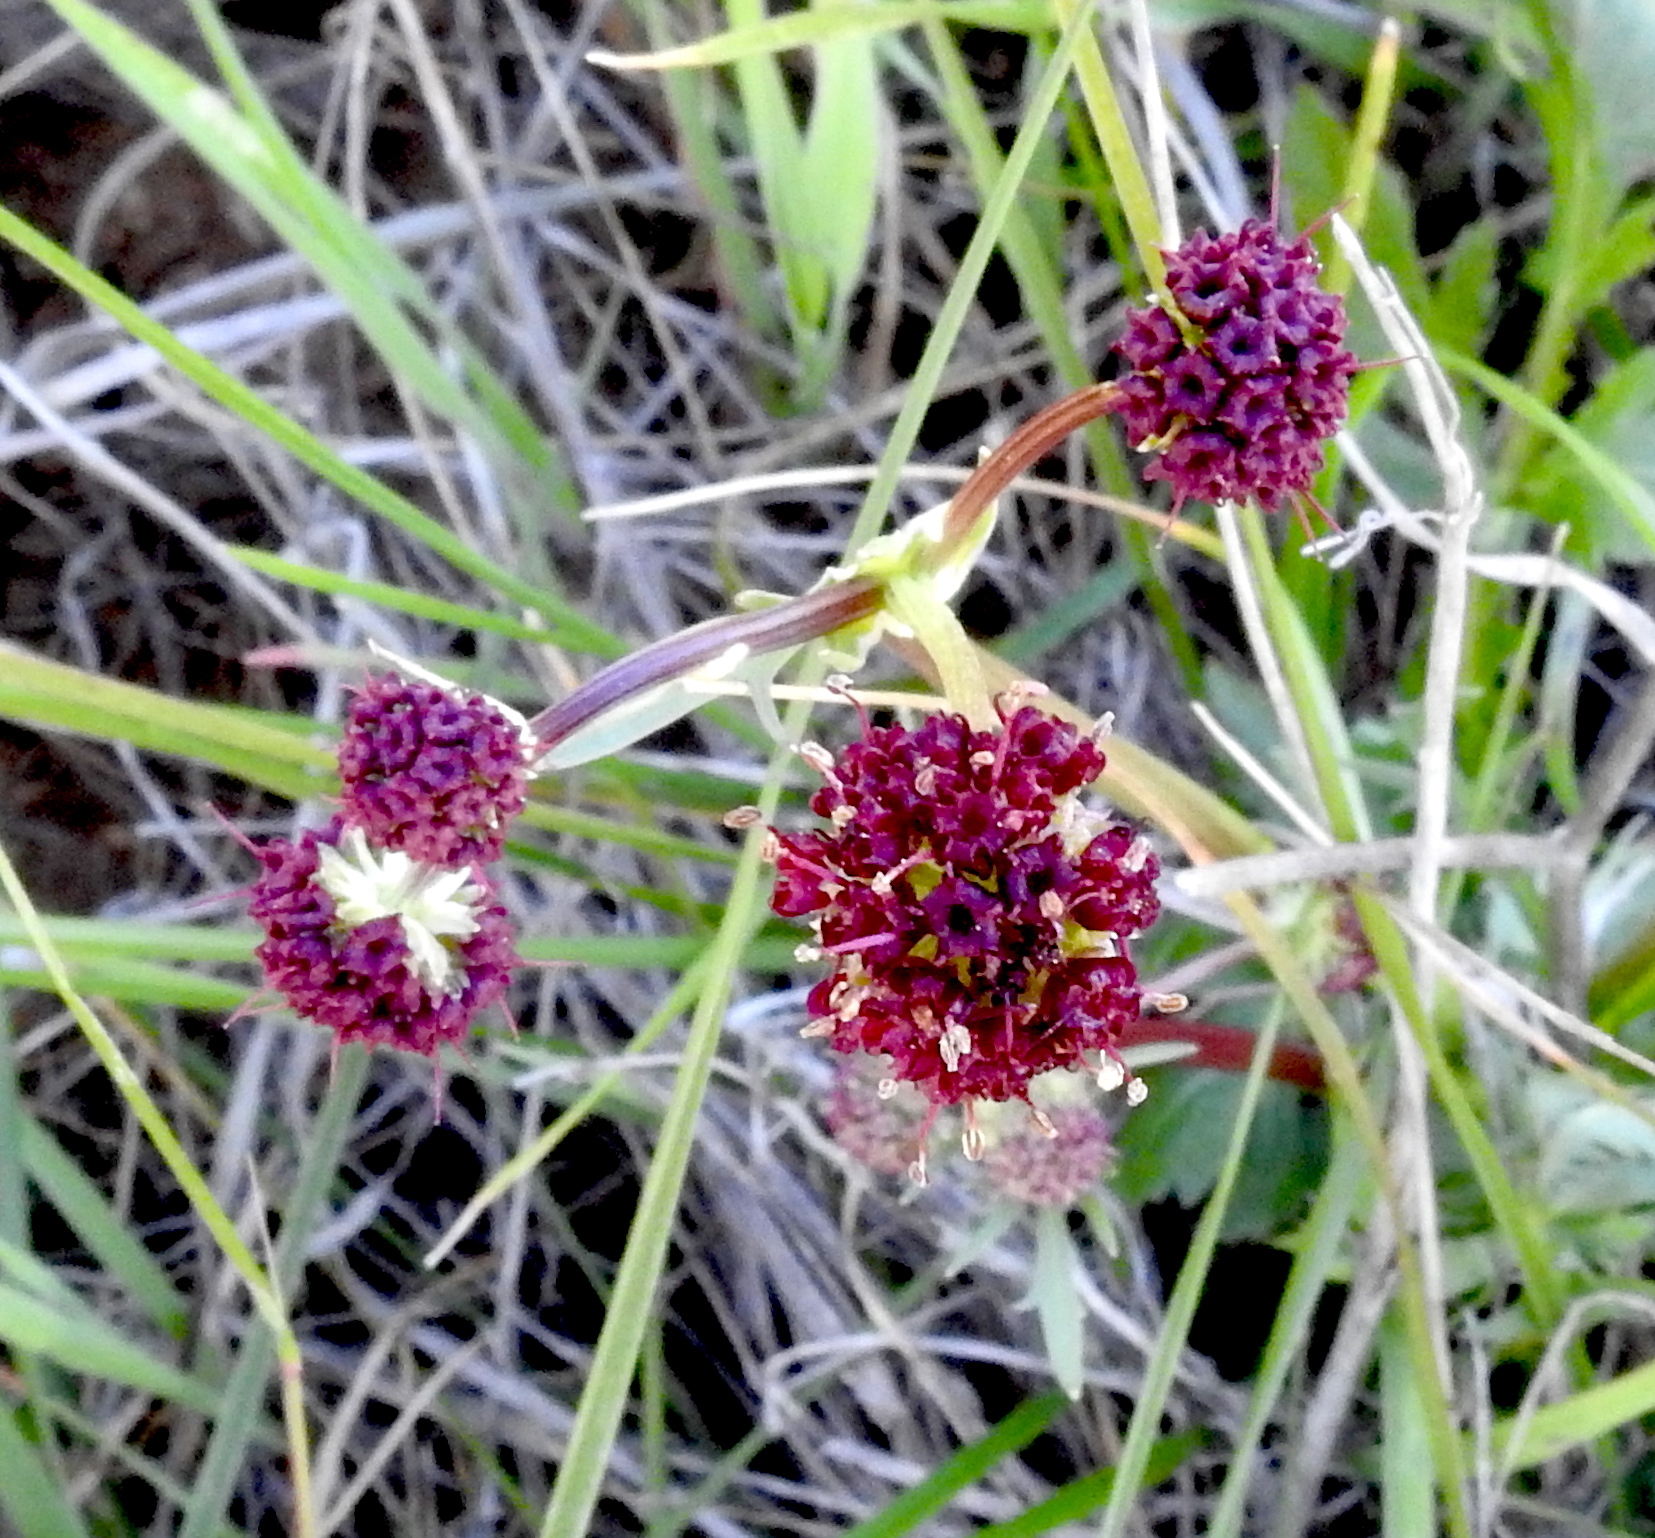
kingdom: Plantae
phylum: Tracheophyta
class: Magnoliopsida
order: Apiales
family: Apiaceae
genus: Sanicula
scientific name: Sanicula bipinnatifida
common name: Shoe-buttons
